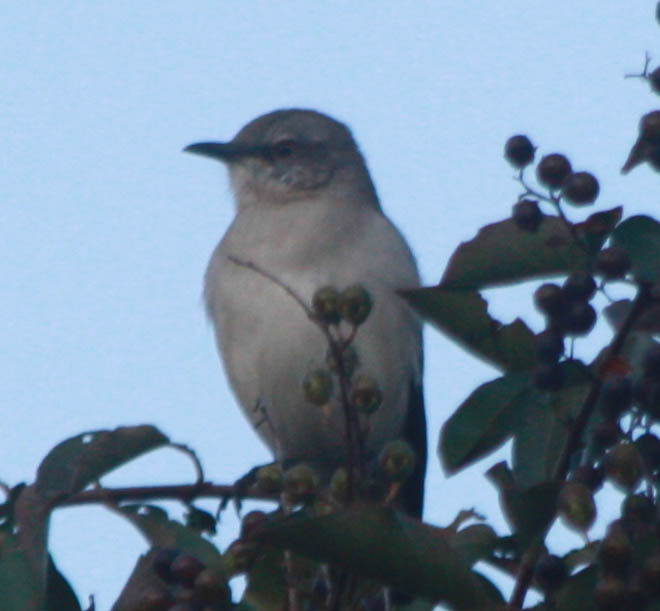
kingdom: Animalia
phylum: Chordata
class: Aves
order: Passeriformes
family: Mimidae
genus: Mimus
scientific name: Mimus polyglottos
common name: Northern mockingbird
